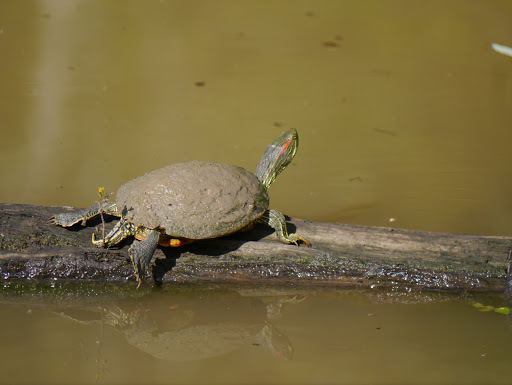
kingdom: Animalia
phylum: Chordata
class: Testudines
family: Emydidae
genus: Trachemys
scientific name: Trachemys scripta
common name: Slider
